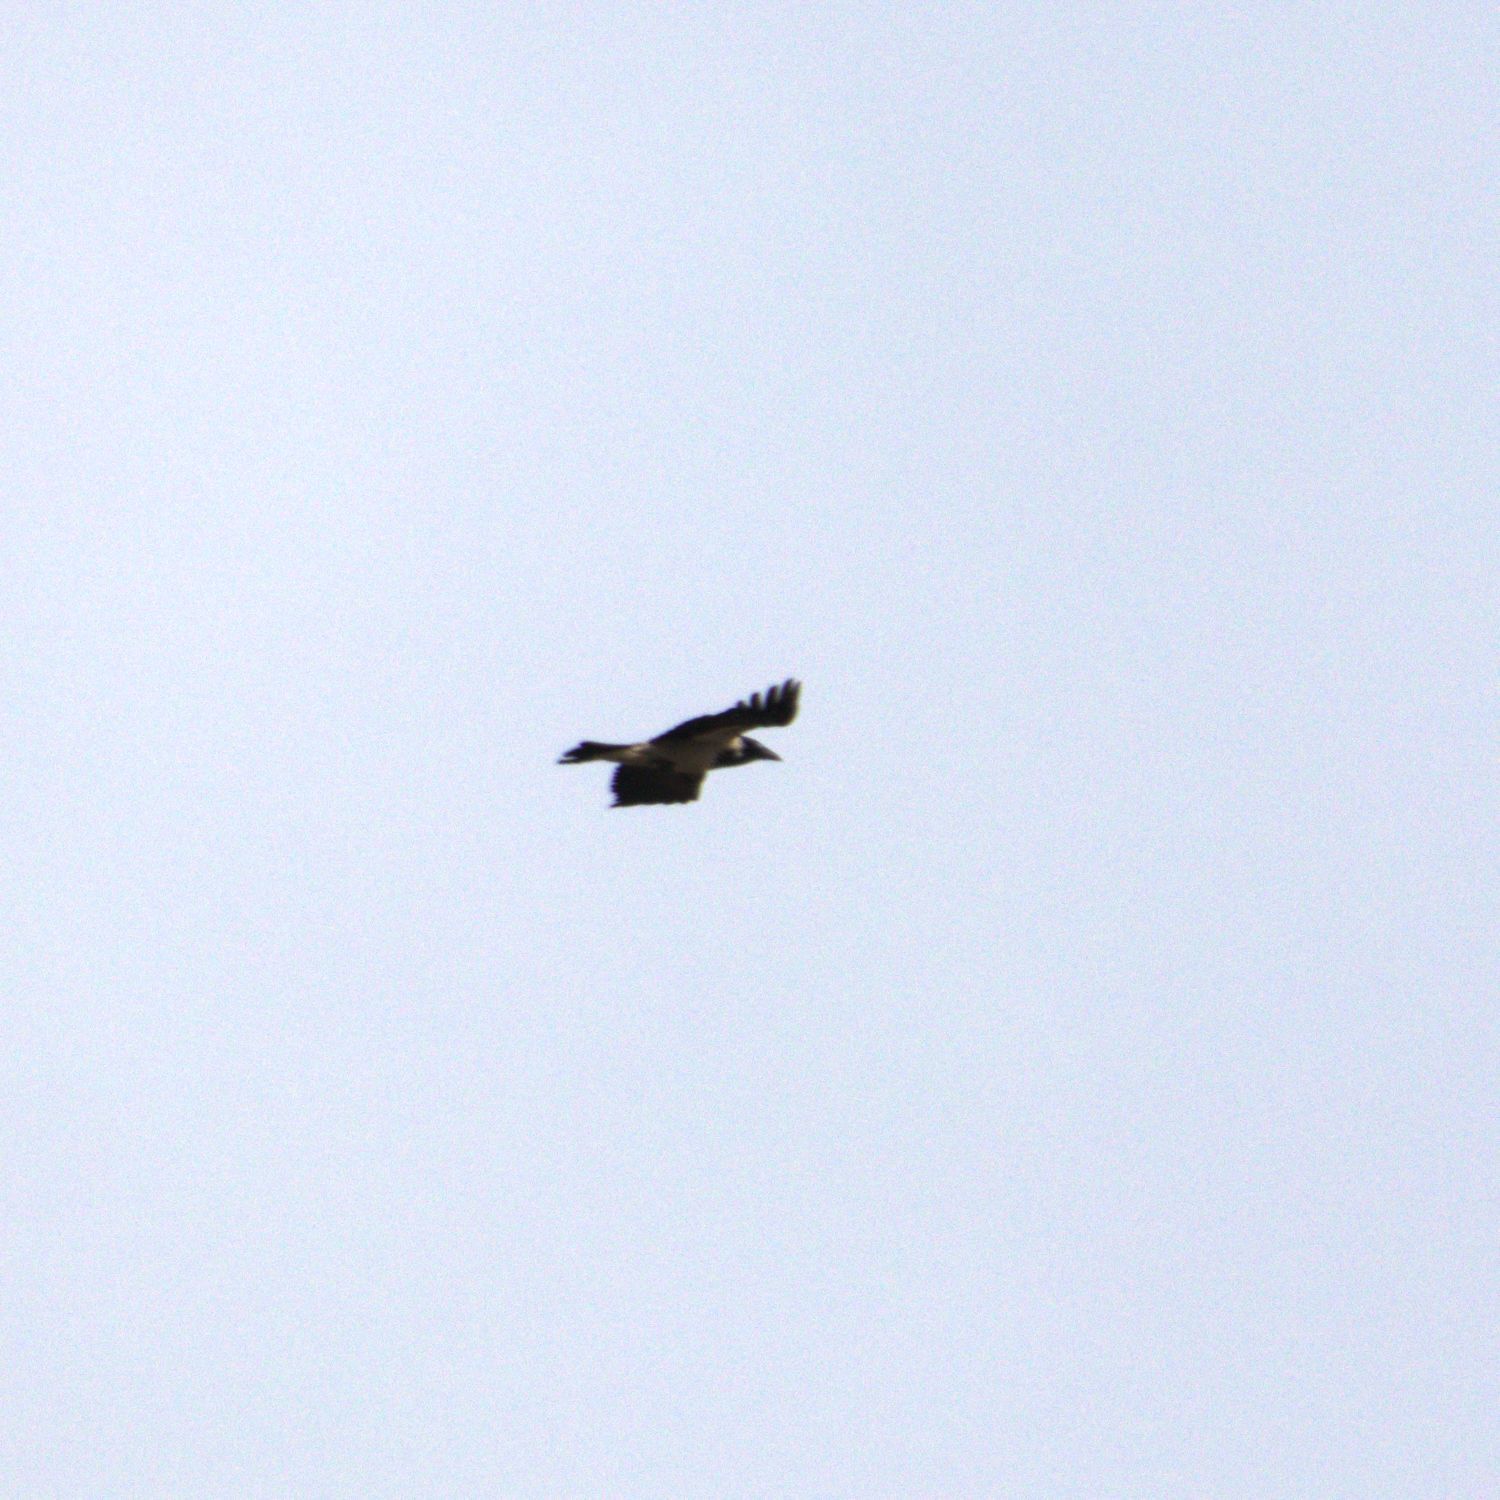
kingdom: Animalia
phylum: Chordata
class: Aves
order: Passeriformes
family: Corvidae
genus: Corvus
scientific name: Corvus cornix
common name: Hooded crow
